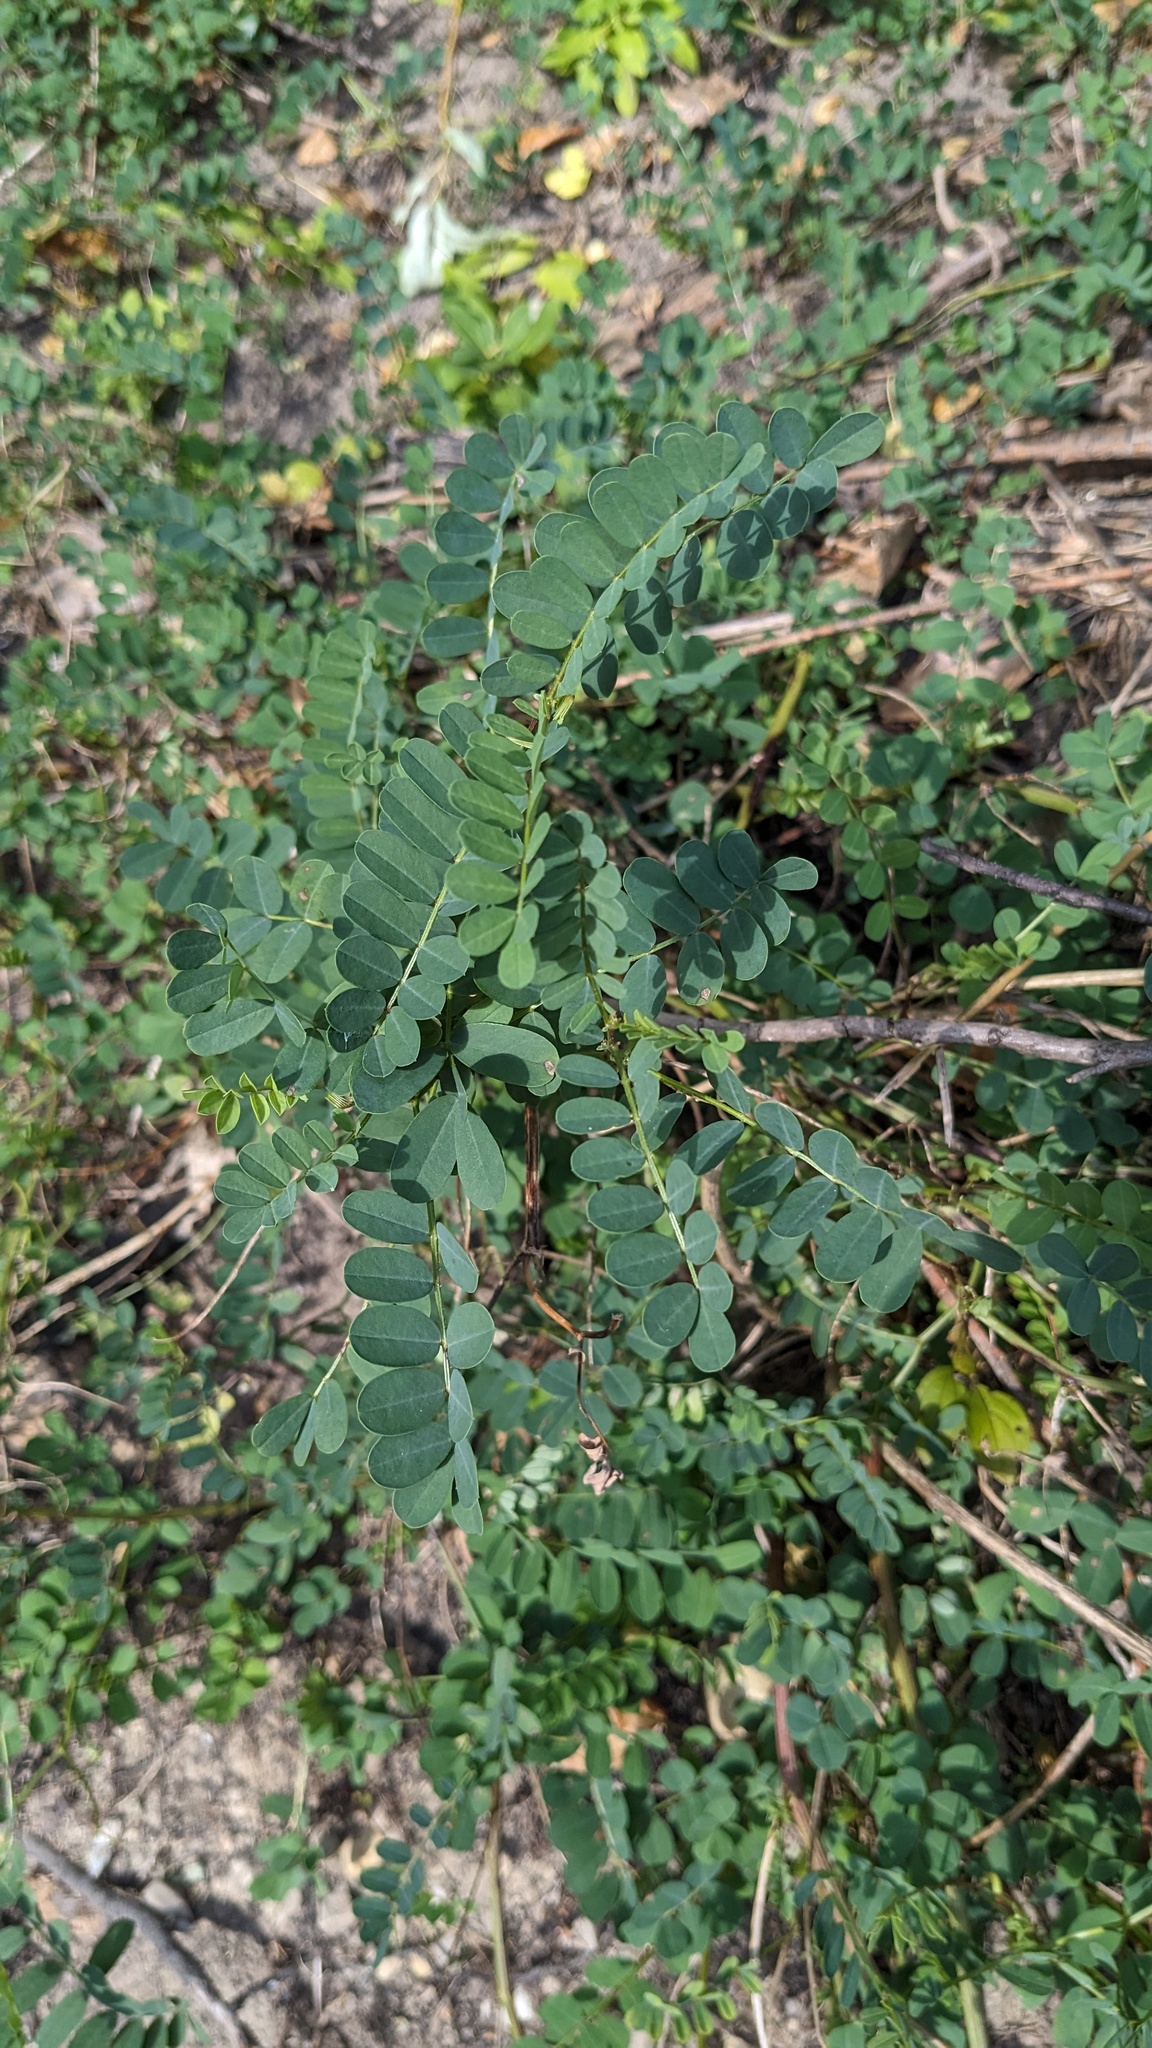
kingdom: Plantae
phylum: Tracheophyta
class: Magnoliopsida
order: Fabales
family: Fabaceae
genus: Coronilla
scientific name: Coronilla varia
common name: Crownvetch
